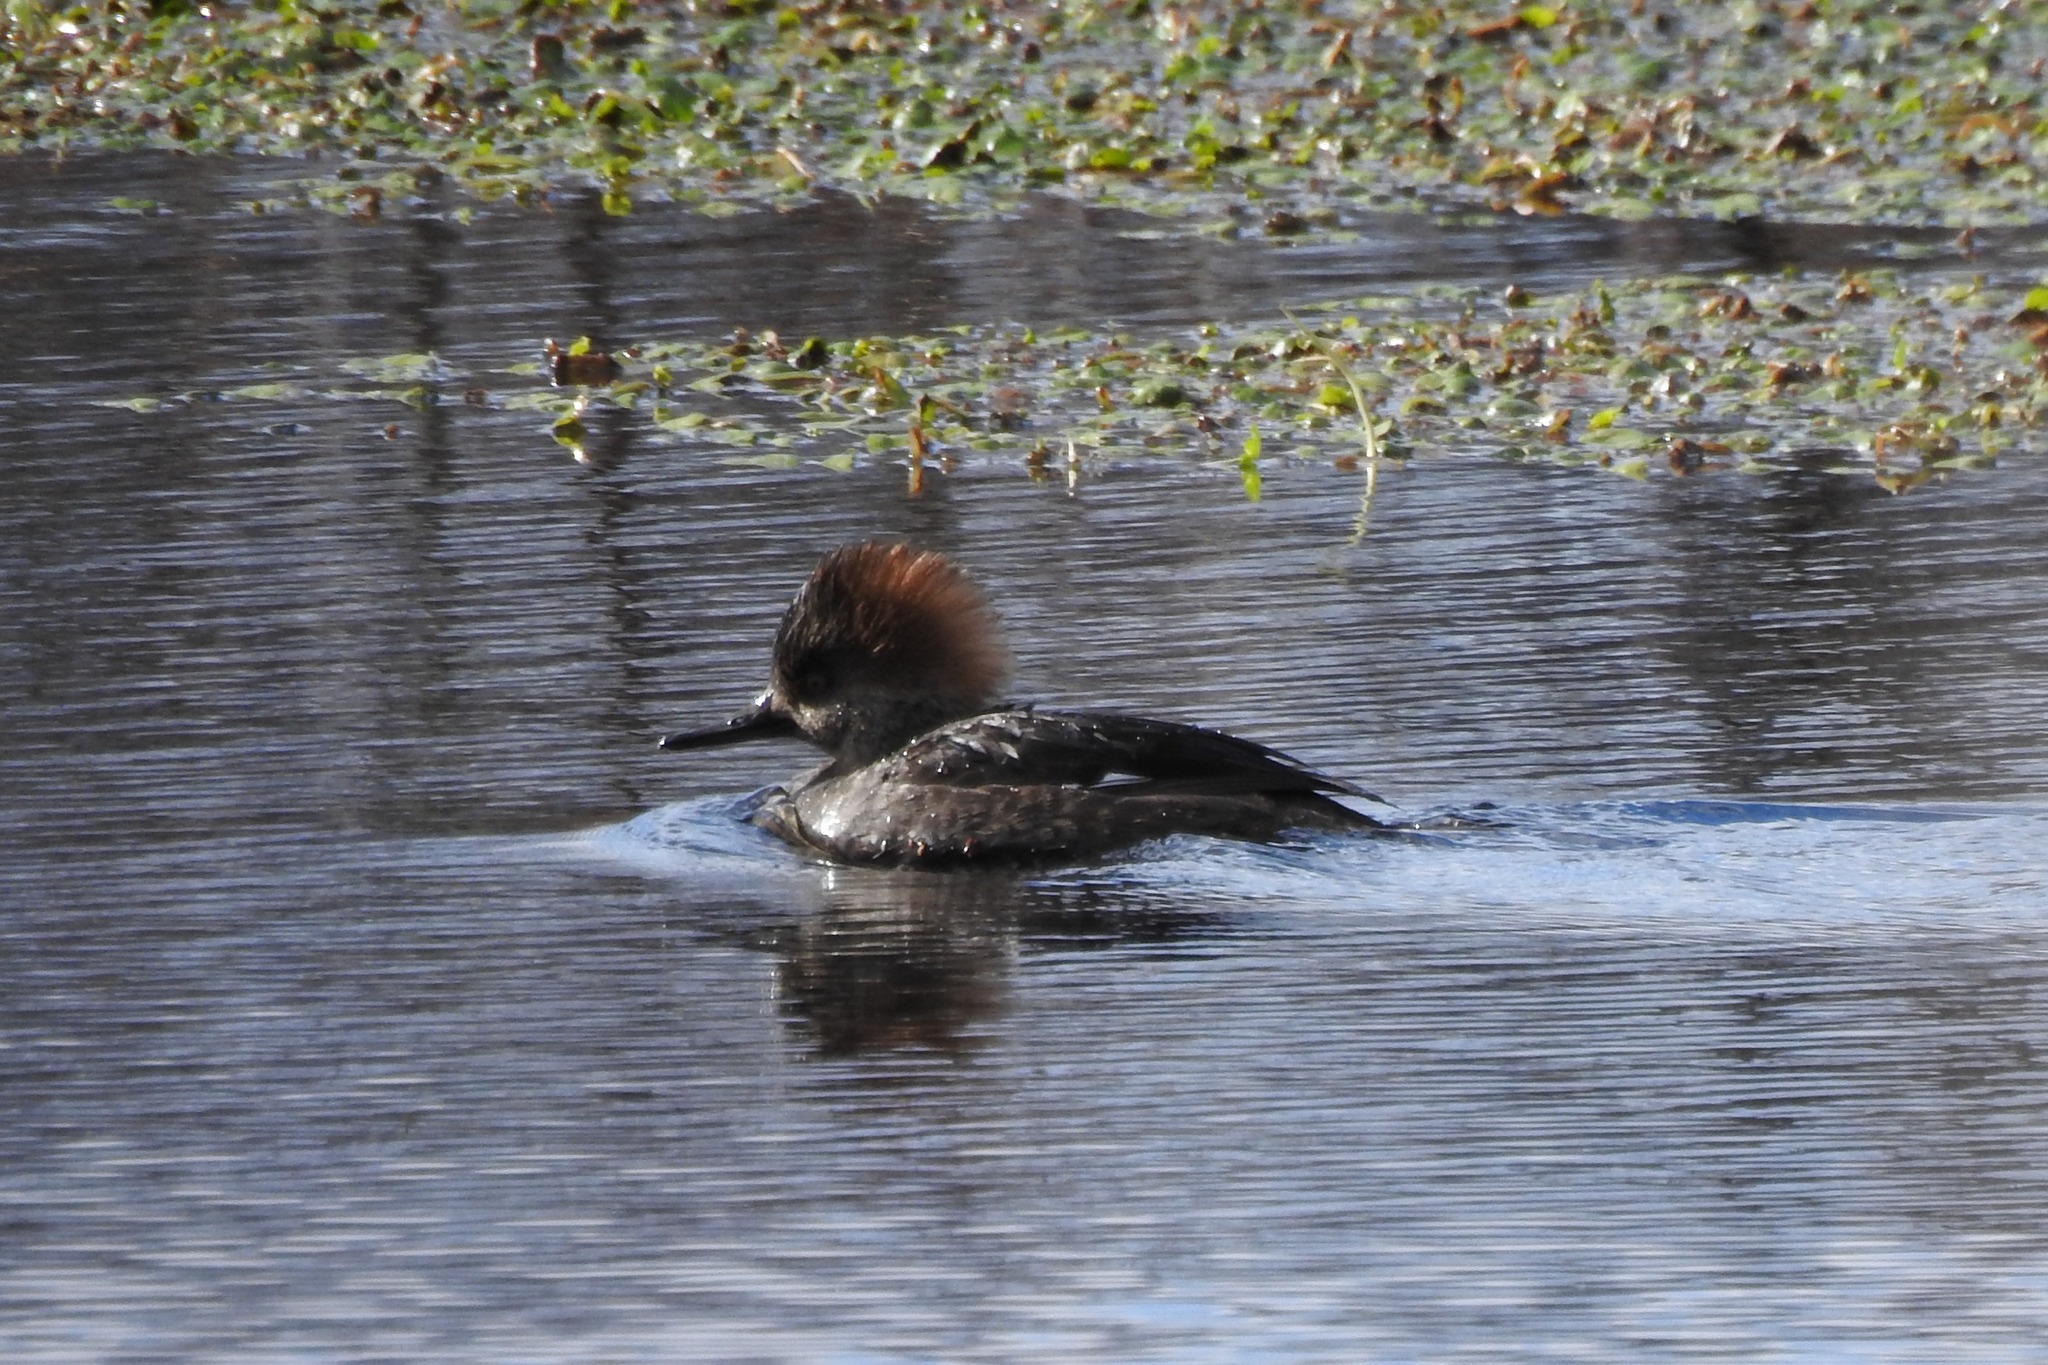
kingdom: Animalia
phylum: Chordata
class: Aves
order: Anseriformes
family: Anatidae
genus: Lophodytes
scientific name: Lophodytes cucullatus
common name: Hooded merganser
